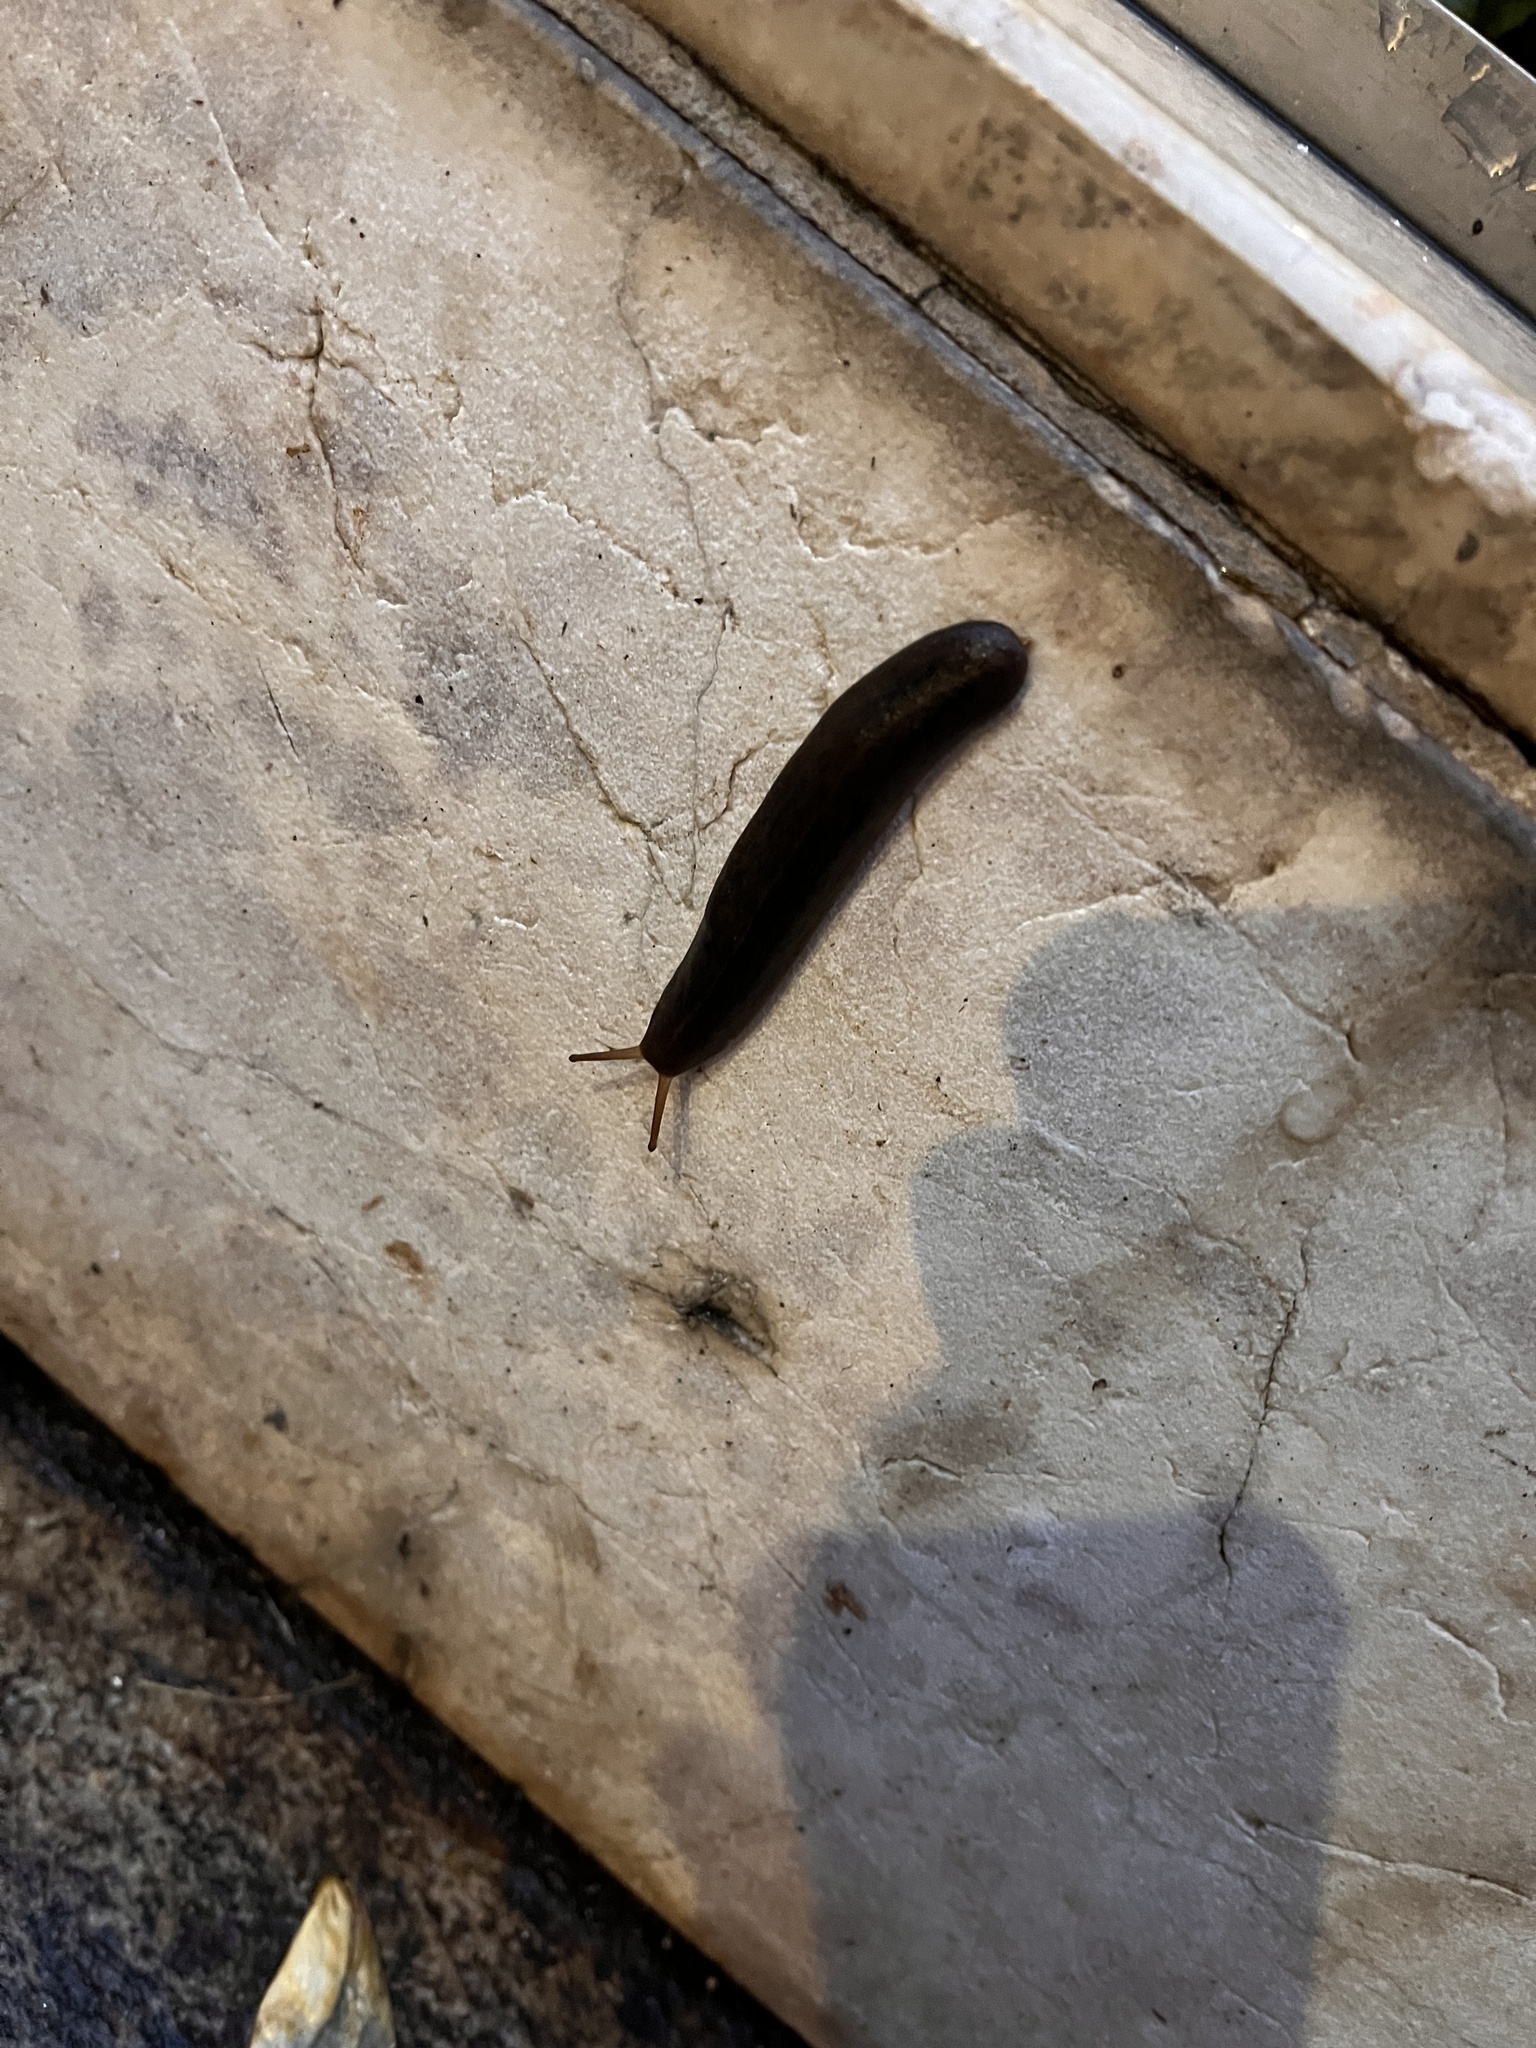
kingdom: Animalia
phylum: Mollusca
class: Gastropoda
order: Systellommatophora
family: Veronicellidae
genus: Laevicaulis
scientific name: Laevicaulis alte
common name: Tropical leatherleaf
